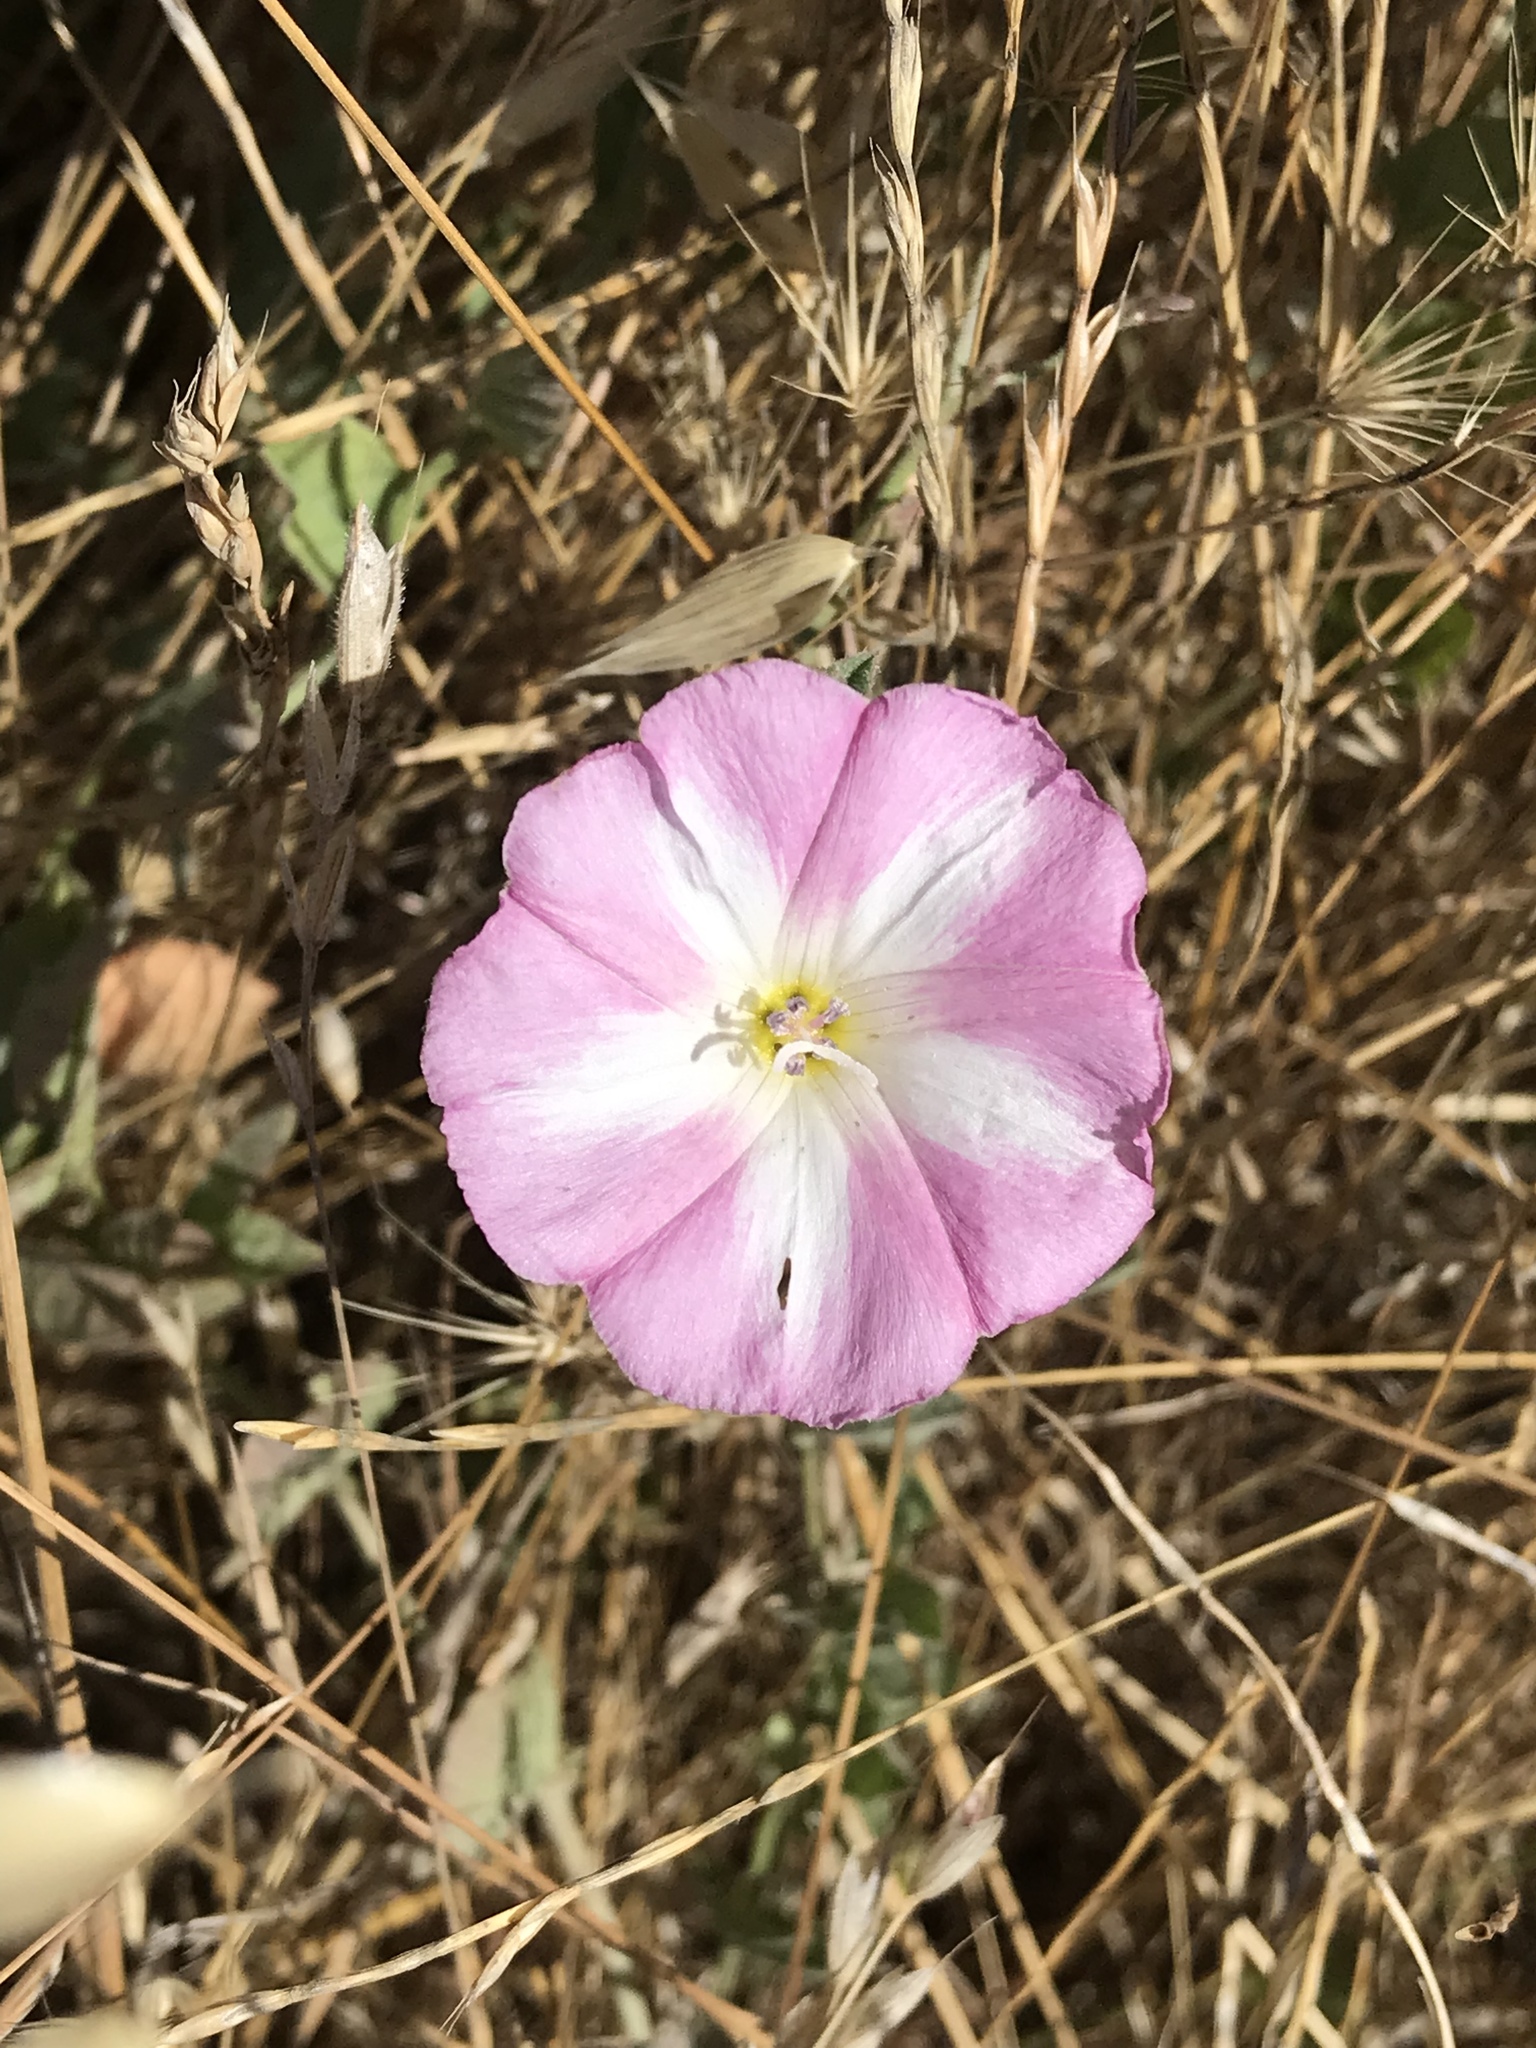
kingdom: Plantae
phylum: Tracheophyta
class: Magnoliopsida
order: Solanales
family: Convolvulaceae
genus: Convolvulus
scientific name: Convolvulus arvensis
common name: Field bindweed
